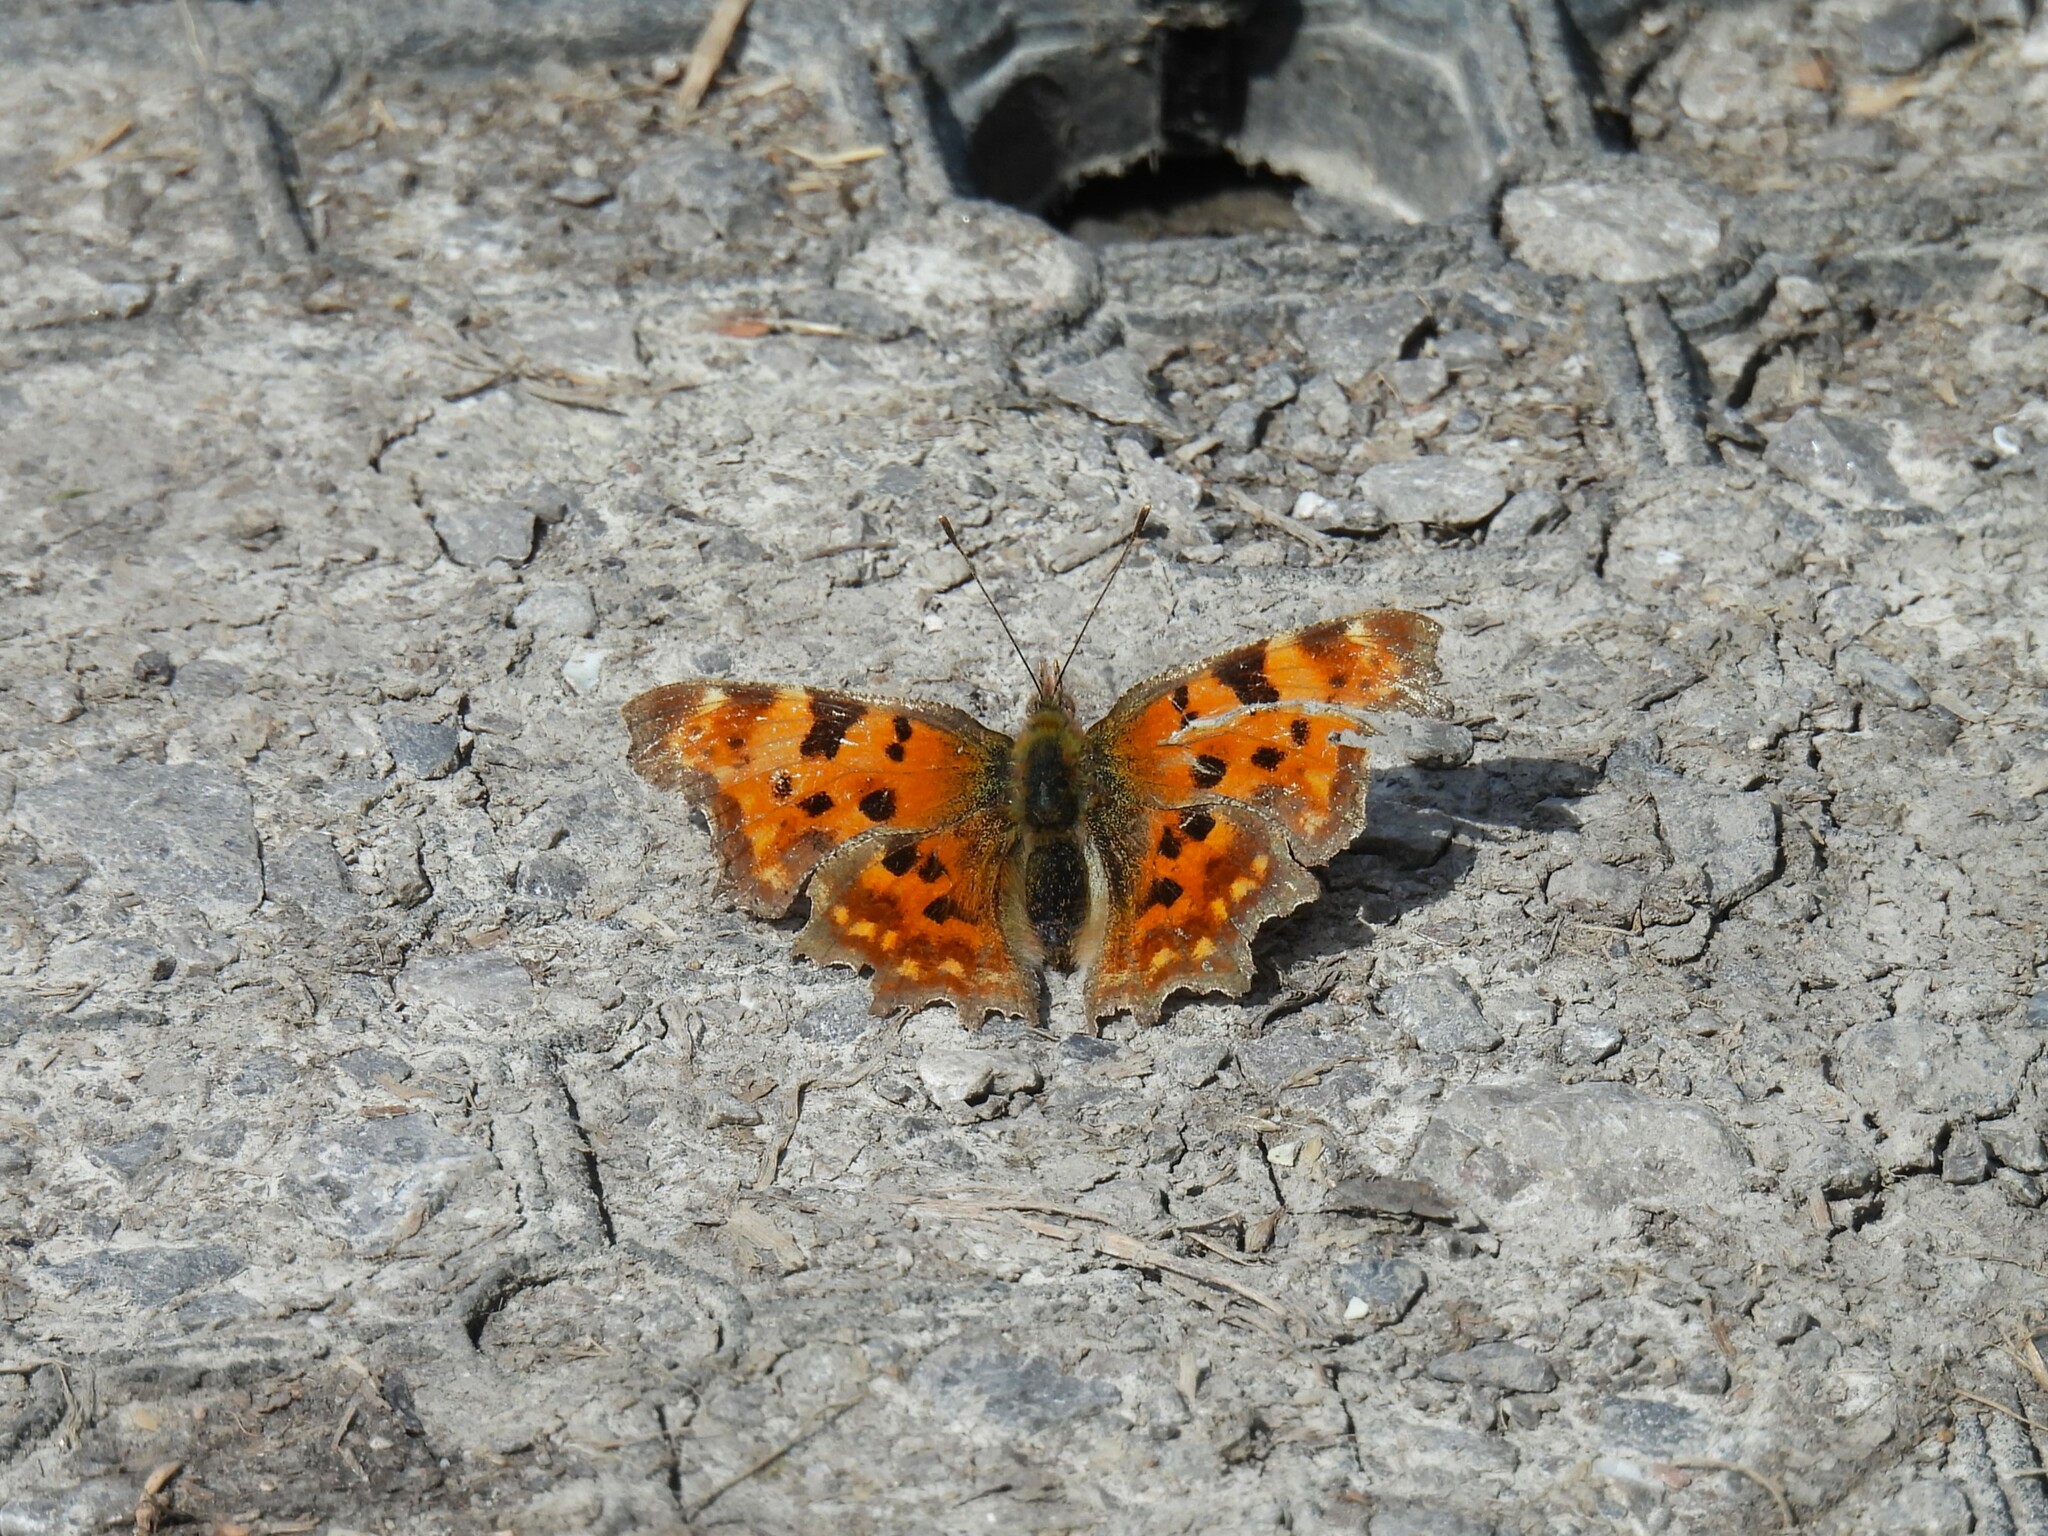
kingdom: Animalia
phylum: Arthropoda
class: Insecta
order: Lepidoptera
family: Nymphalidae
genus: Polygonia
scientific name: Polygonia c-album
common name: Comma
